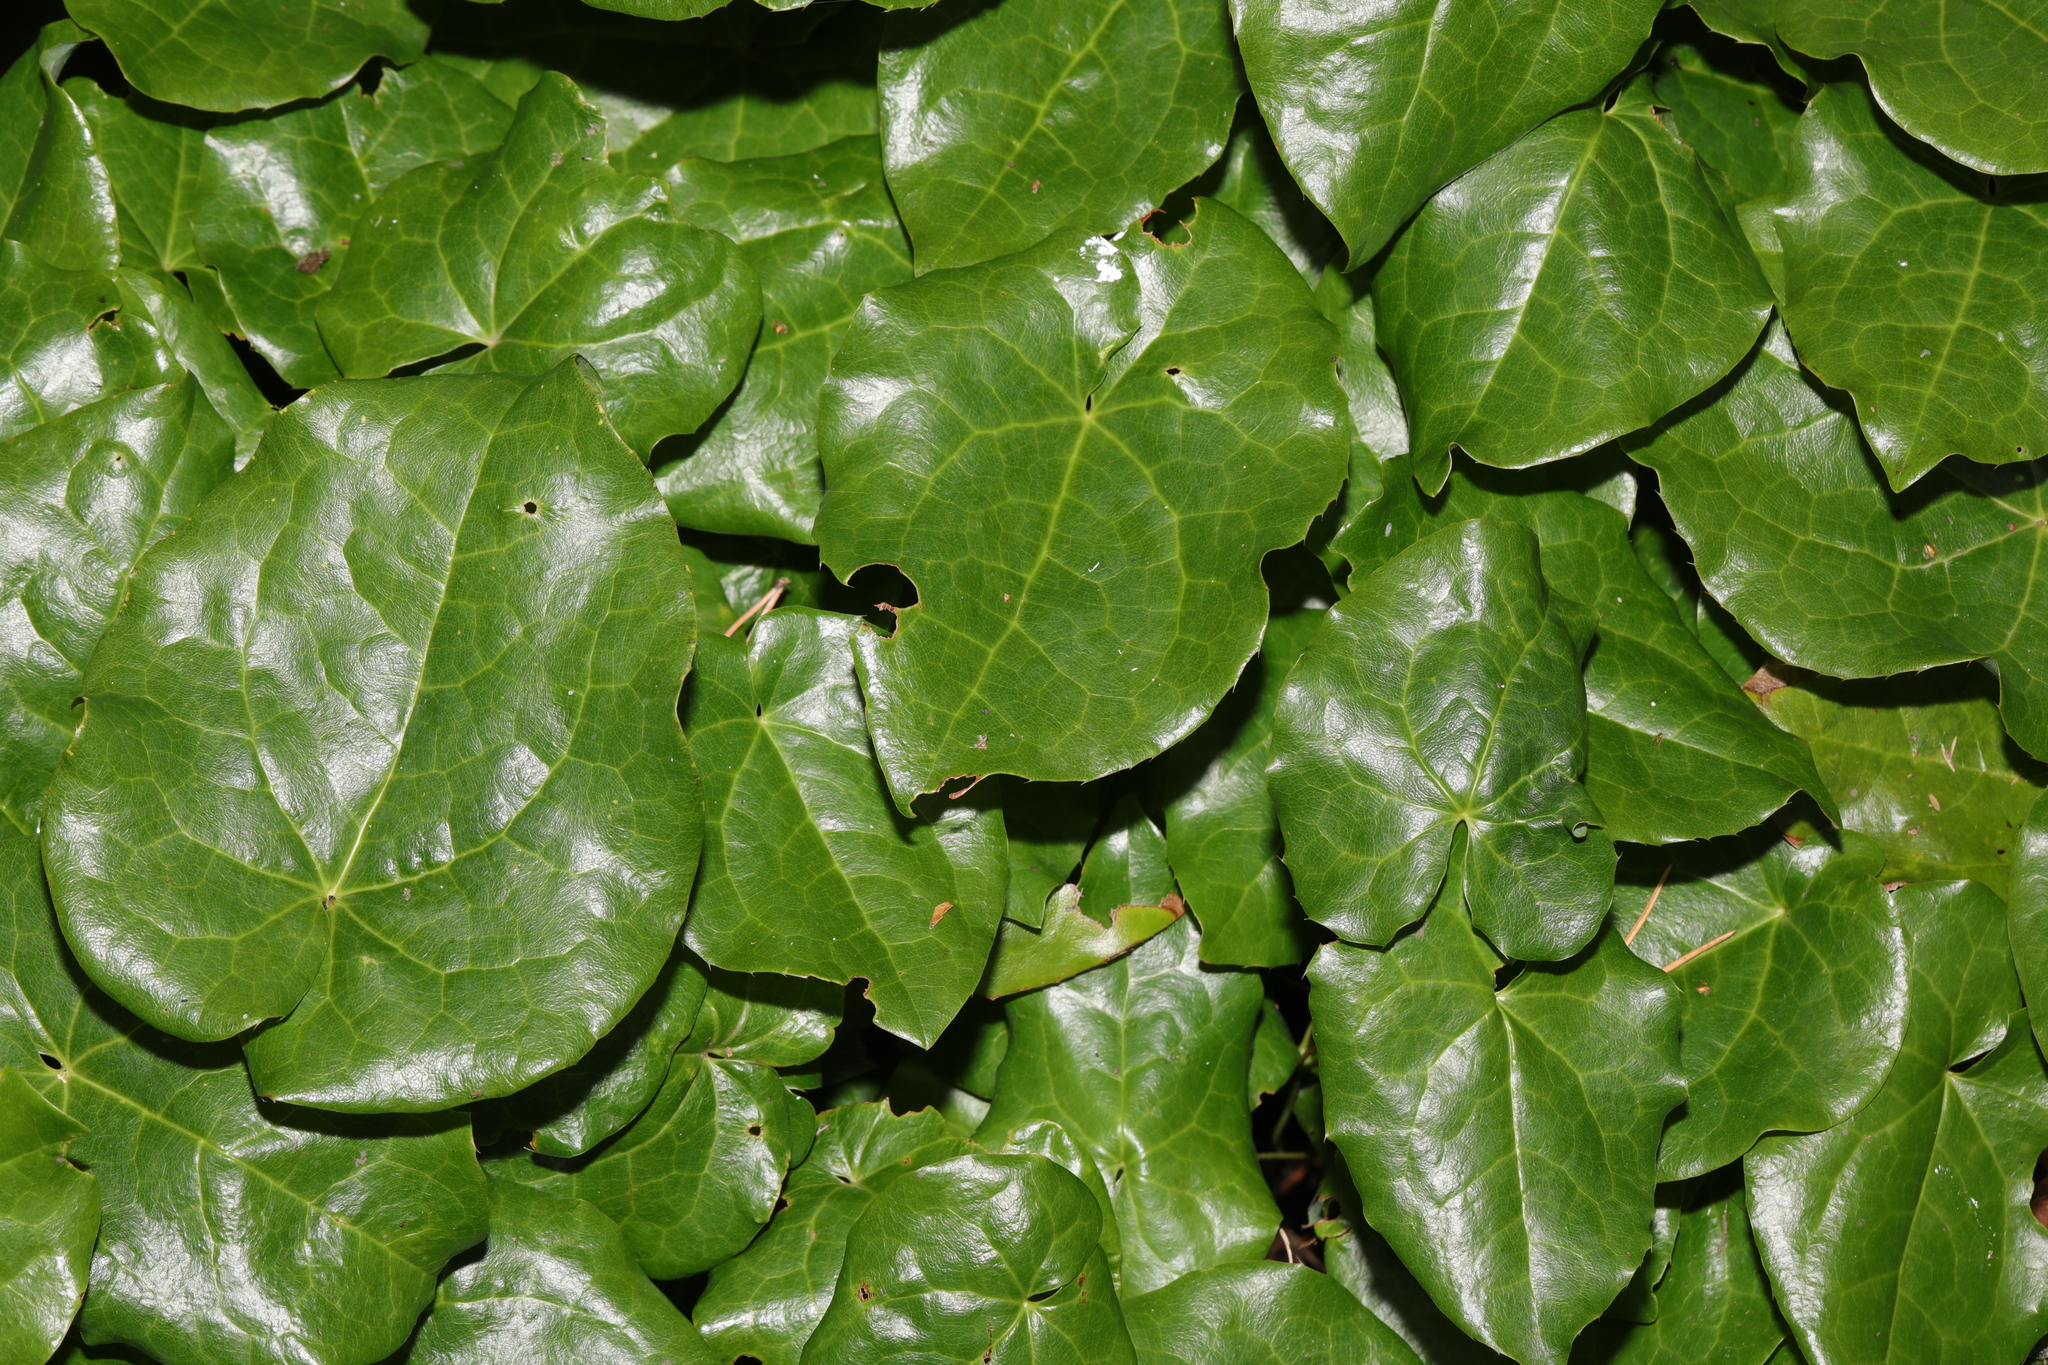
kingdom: Plantae
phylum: Tracheophyta
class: Magnoliopsida
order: Apiales
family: Araliaceae
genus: Hedera
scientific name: Hedera colchica
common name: Persian ivy
